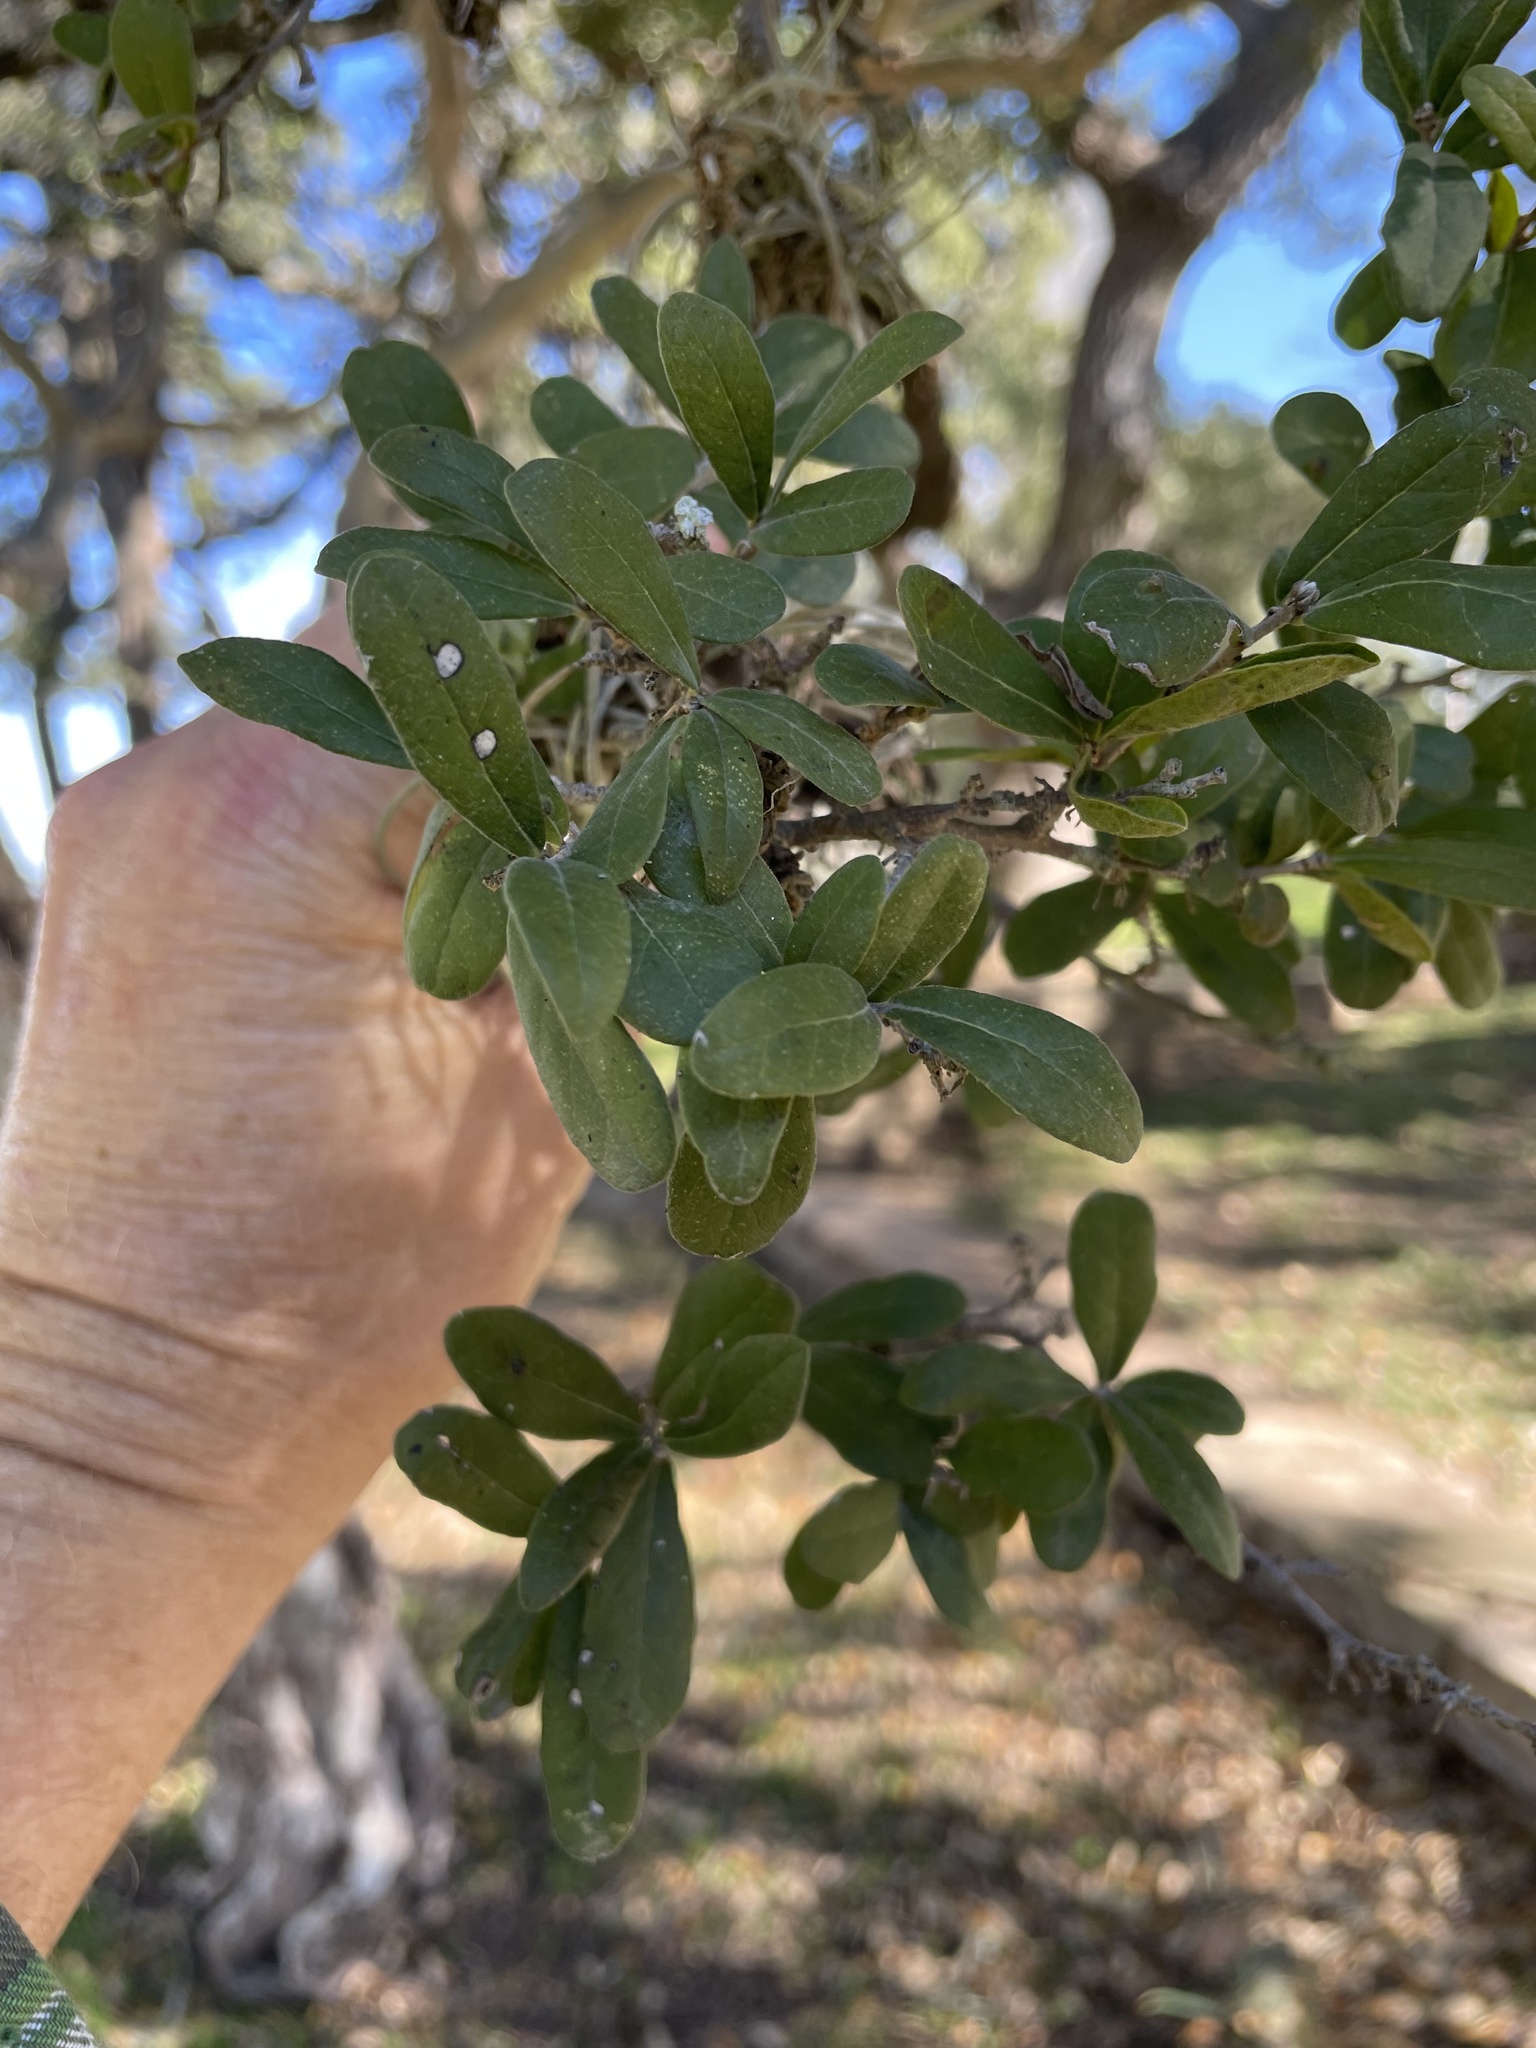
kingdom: Plantae
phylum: Tracheophyta
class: Magnoliopsida
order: Ericales
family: Ebenaceae
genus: Diospyros
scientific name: Diospyros texana
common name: Texas persimmon
